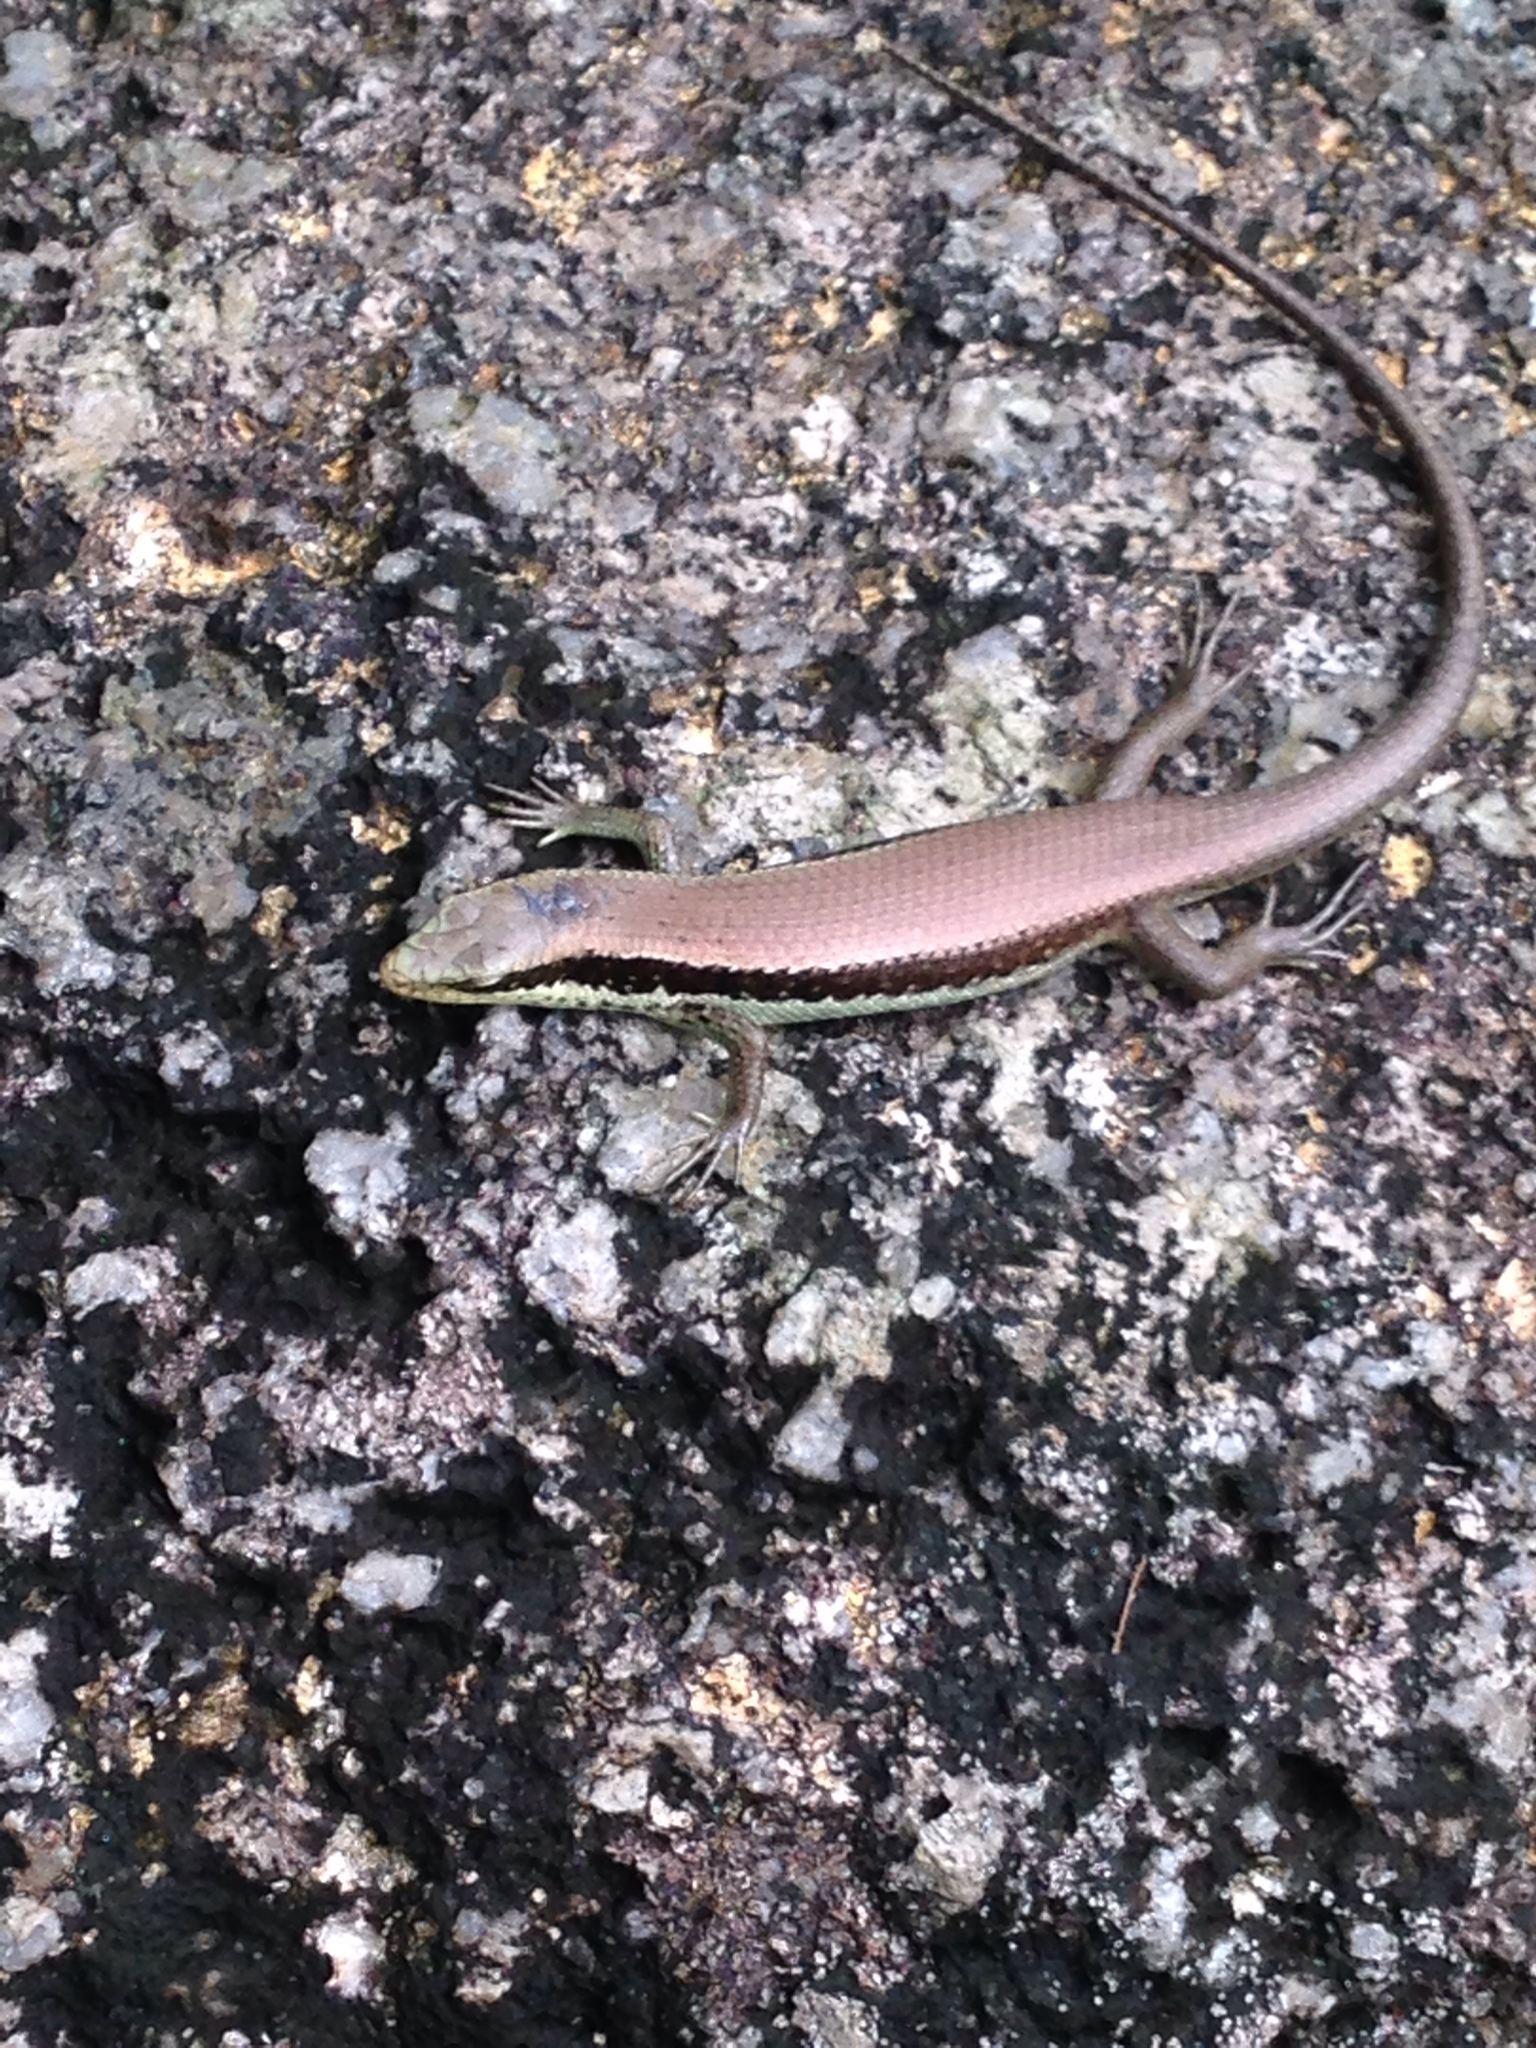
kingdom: Animalia
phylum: Chordata
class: Squamata
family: Scincidae
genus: Eutropis
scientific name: Eutropis longicaudata
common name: Long-tailed sun skink
